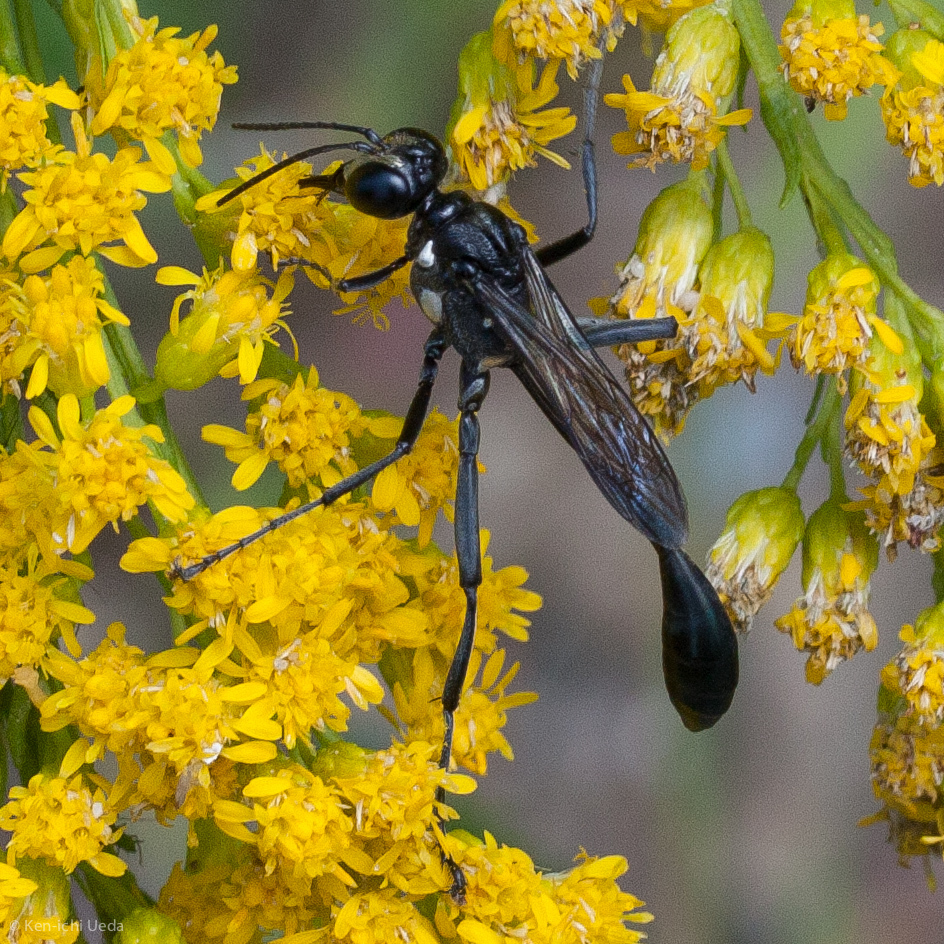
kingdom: Animalia
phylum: Arthropoda
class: Insecta
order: Hymenoptera
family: Sphecidae
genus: Eremnophila
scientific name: Eremnophila aureonotata
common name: Gold-marked thread-waisted wasp
